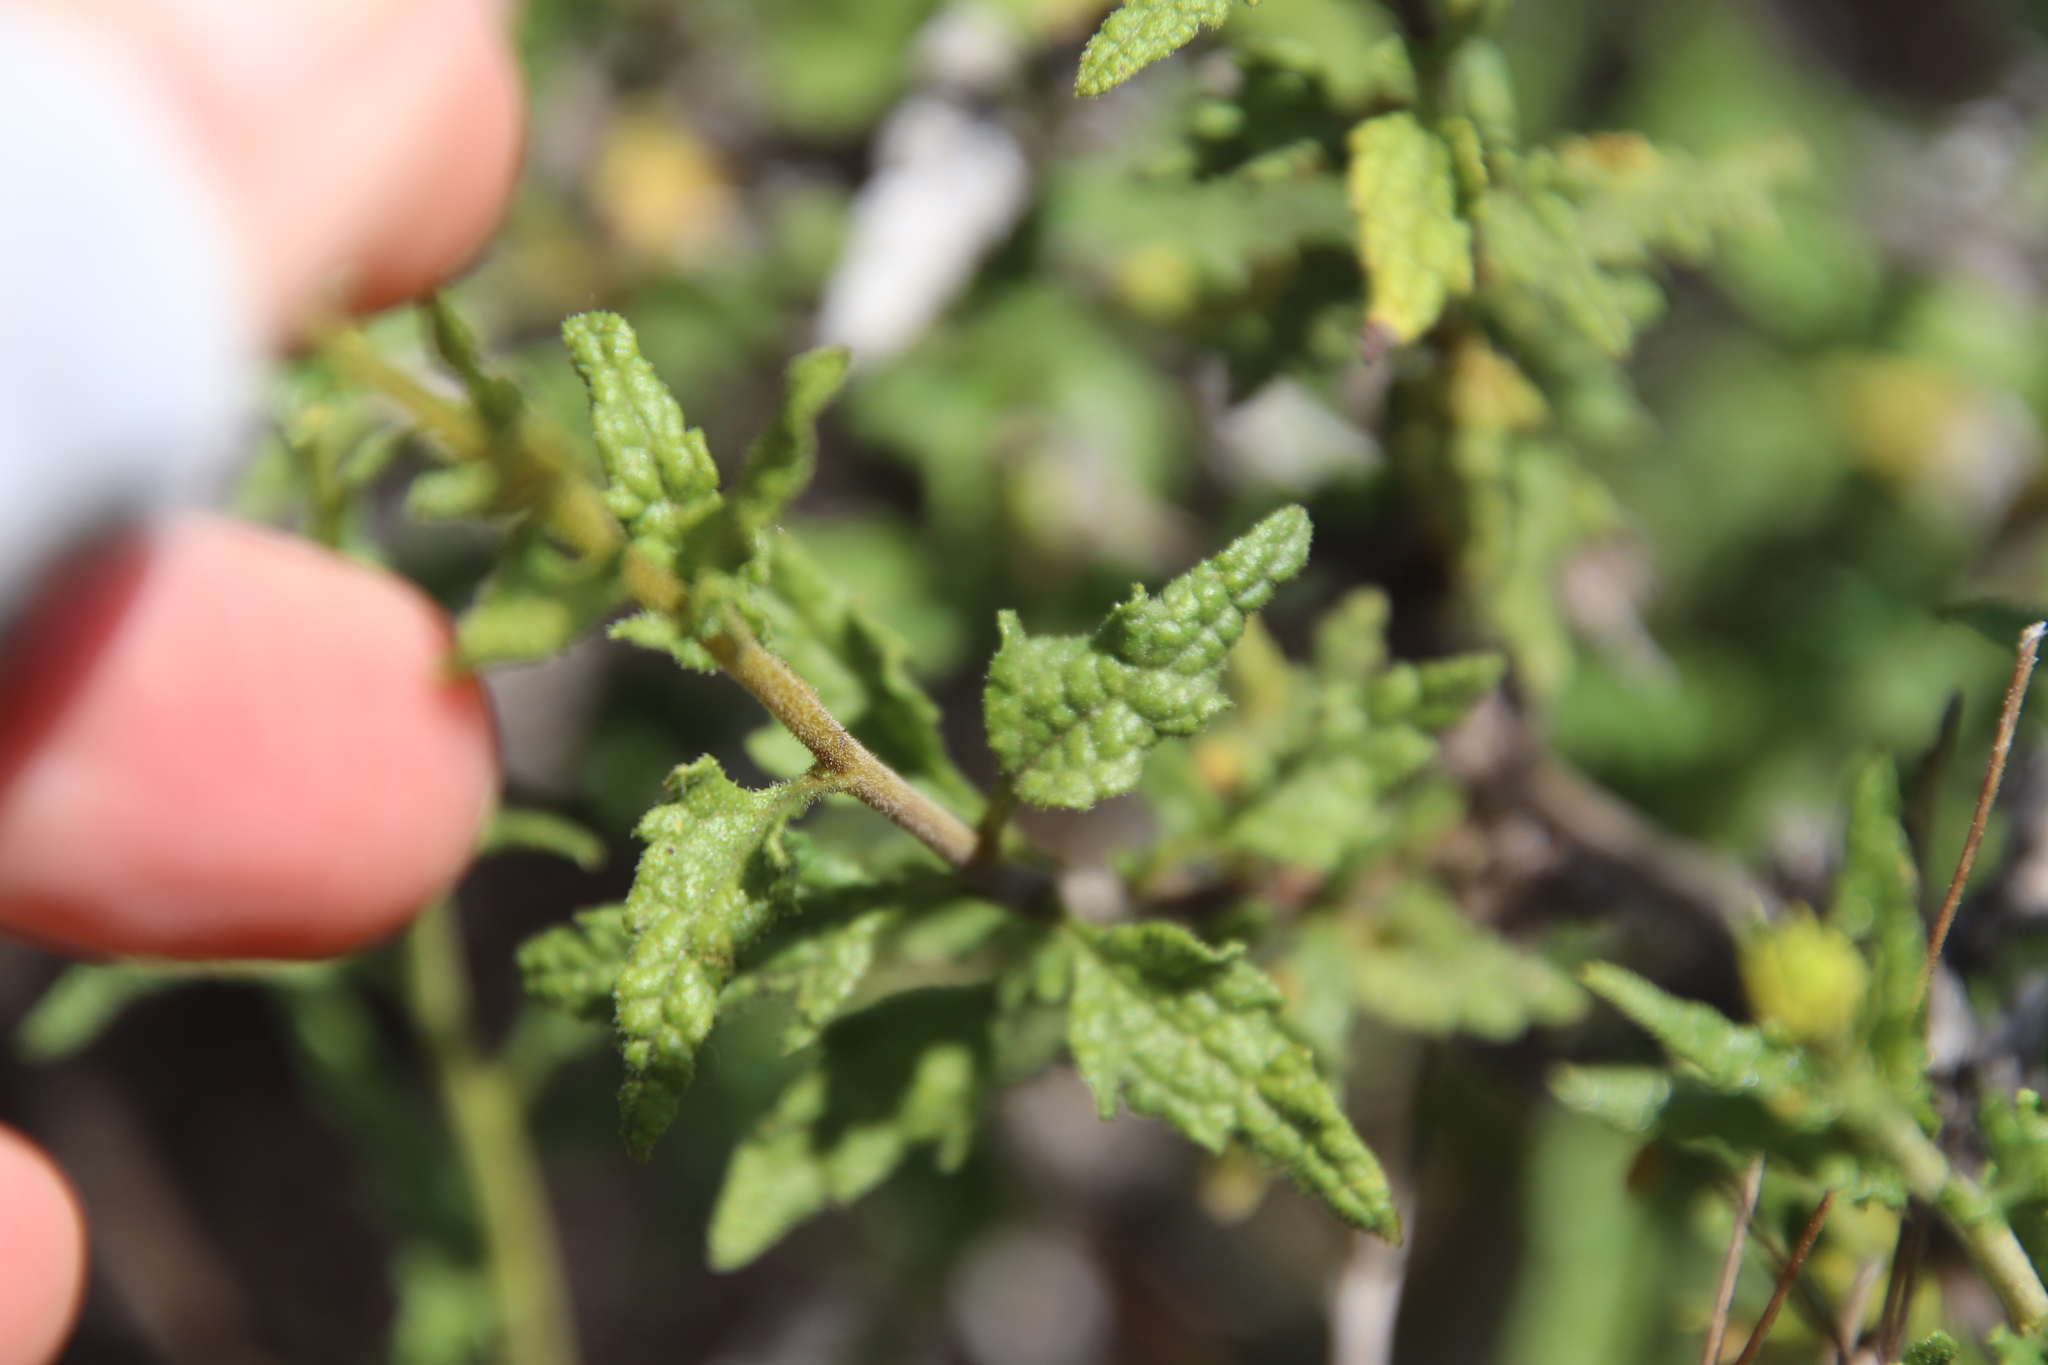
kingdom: Plantae
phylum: Tracheophyta
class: Magnoliopsida
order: Asterales
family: Asteraceae
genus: Bahiopsis
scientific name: Bahiopsis laciniata
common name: San diego county viguiera
